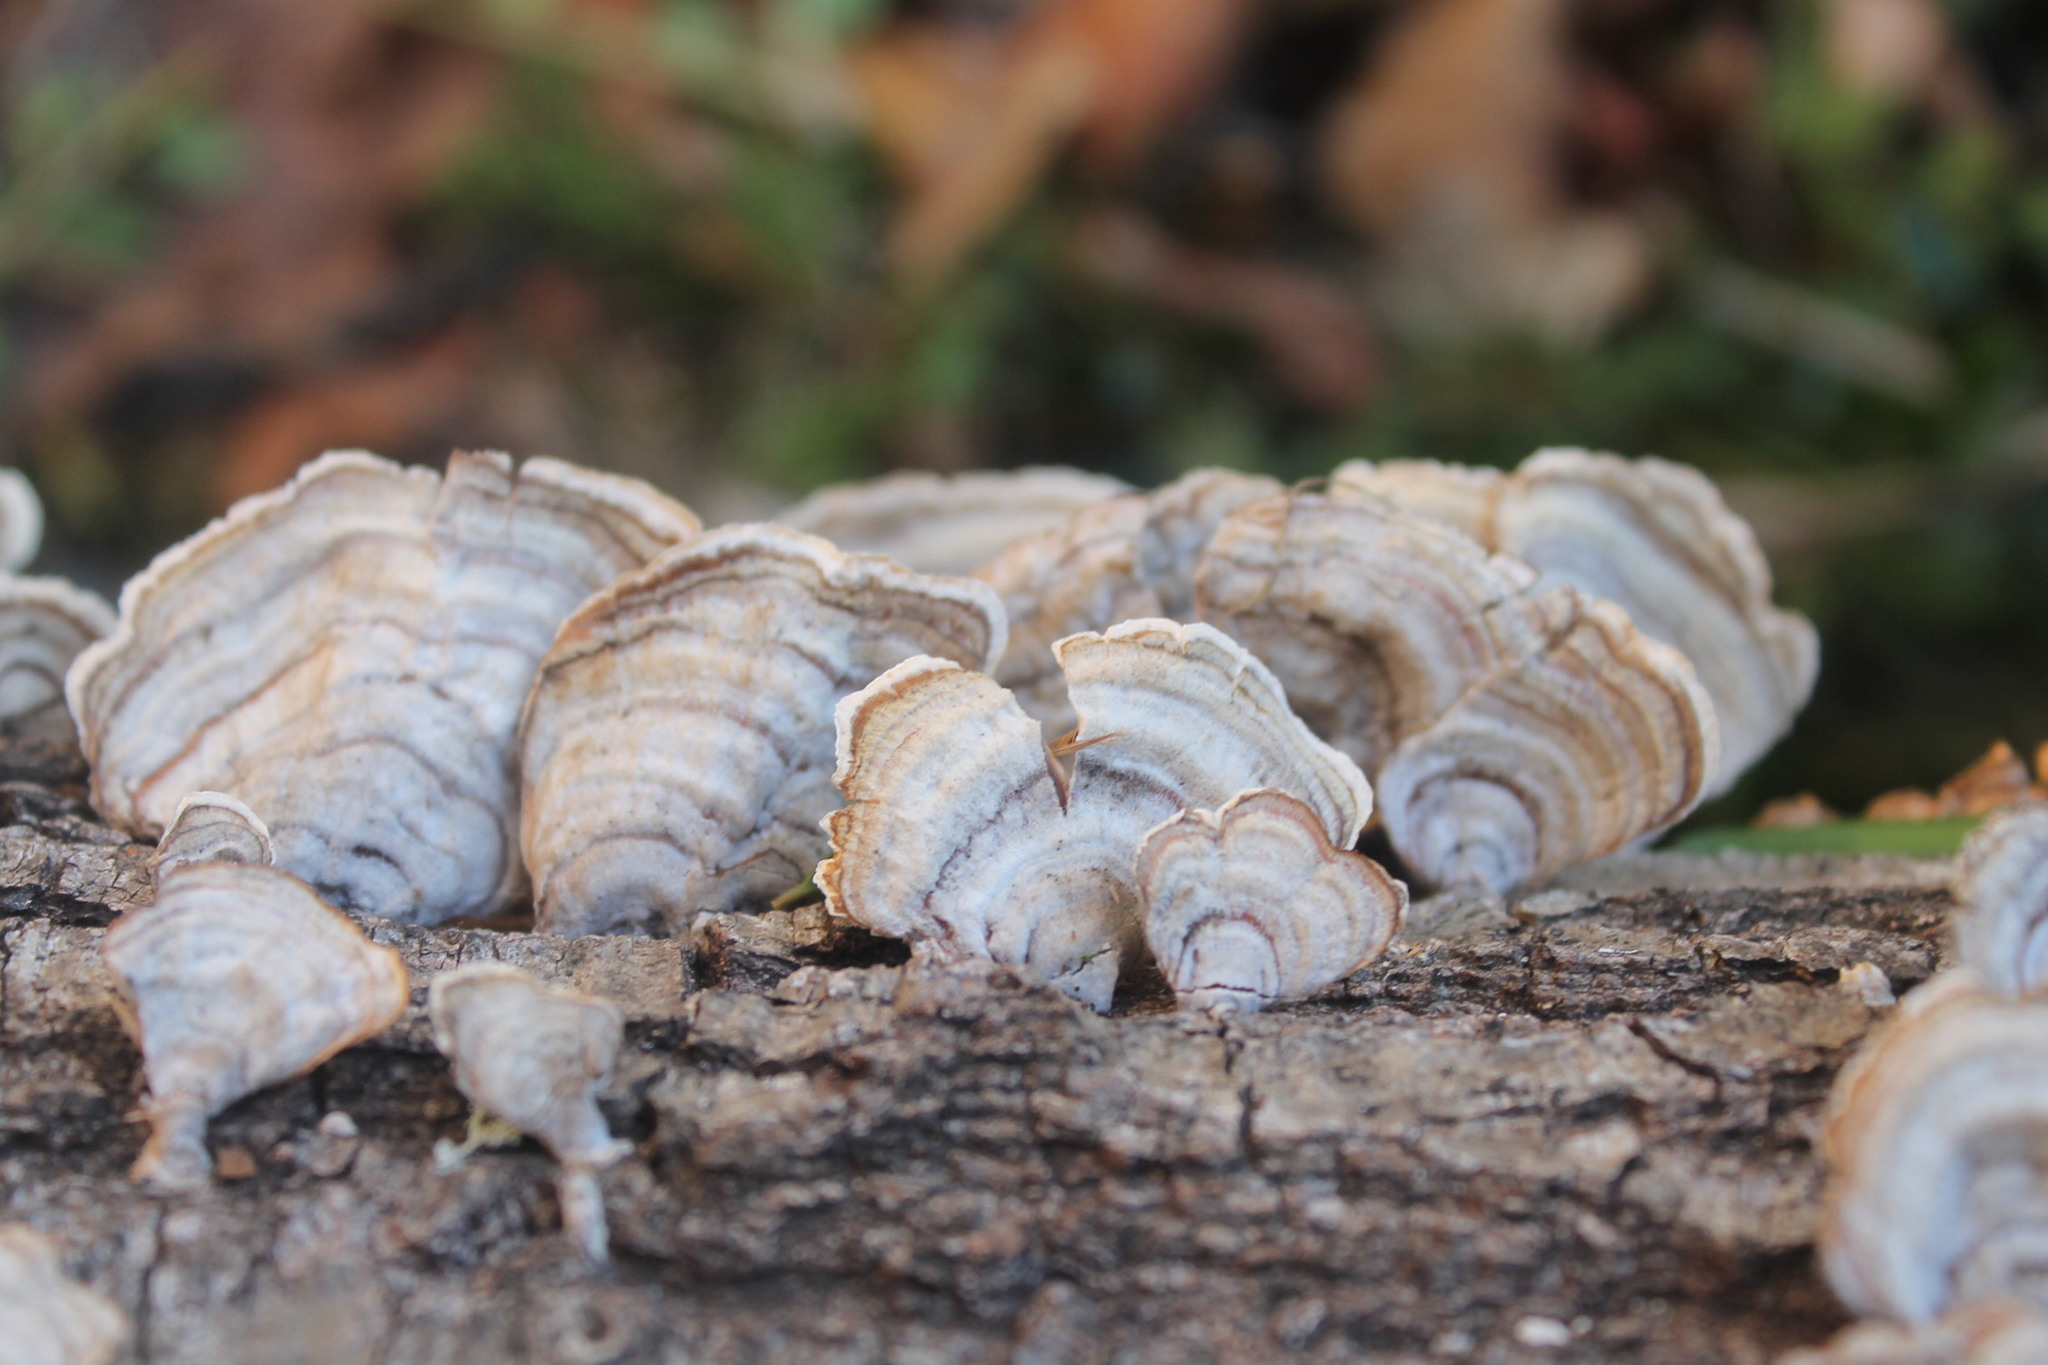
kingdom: Fungi
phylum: Basidiomycota
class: Agaricomycetes
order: Russulales
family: Stereaceae
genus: Stereum
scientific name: Stereum lobatum
